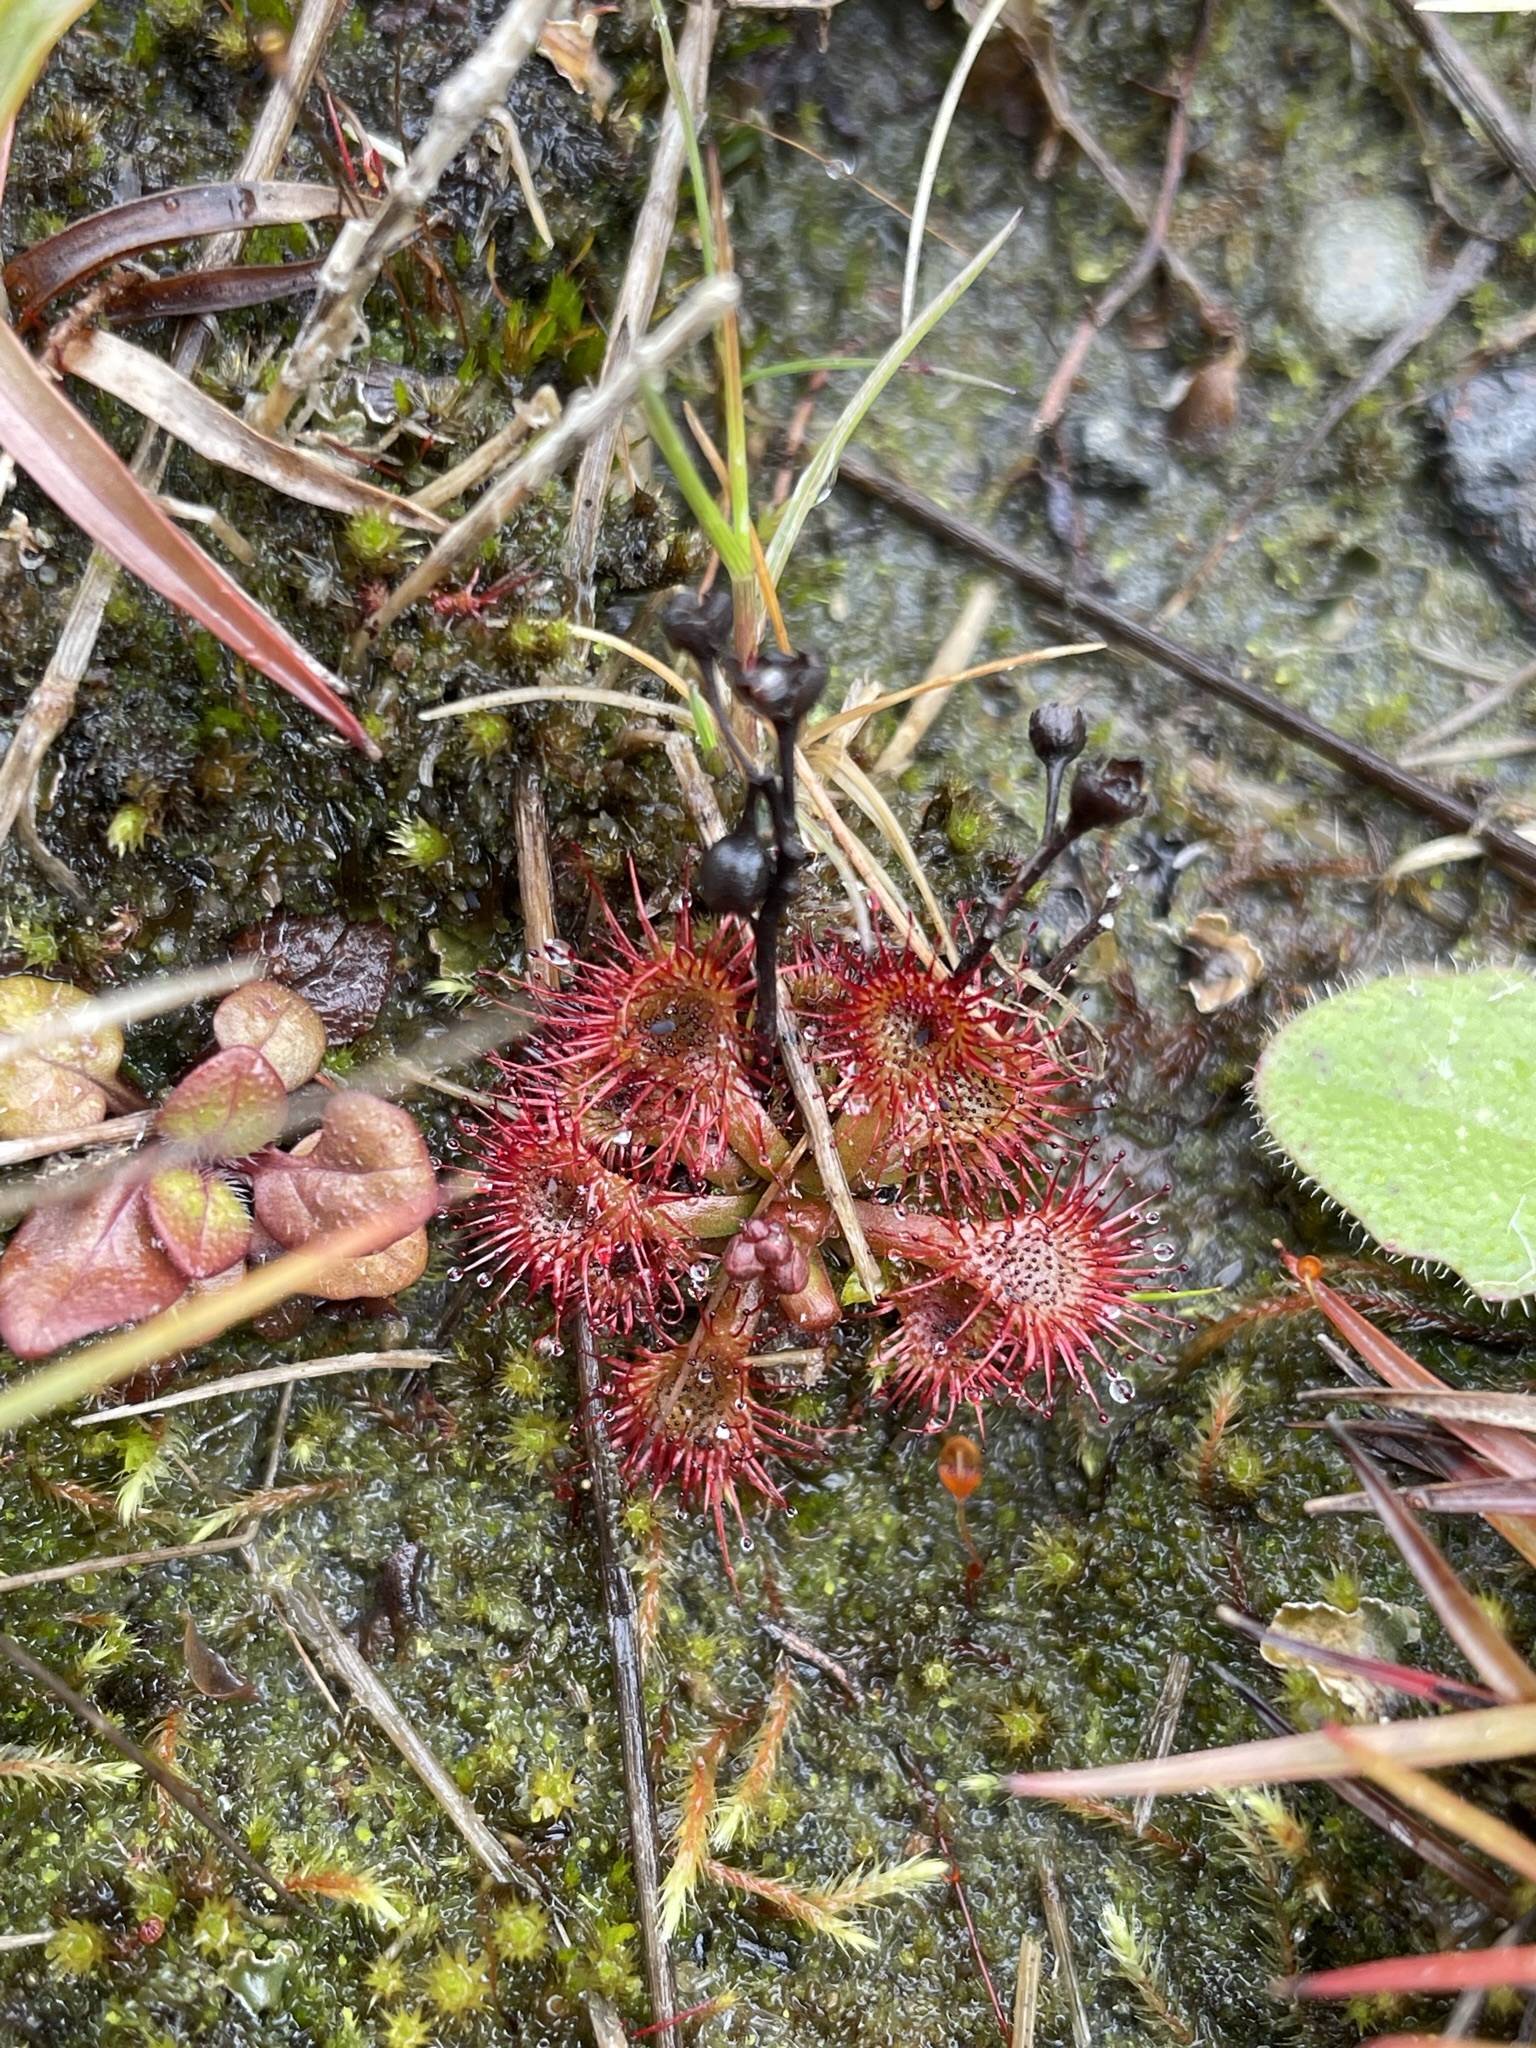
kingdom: Plantae
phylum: Tracheophyta
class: Magnoliopsida
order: Caryophyllales
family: Droseraceae
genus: Drosera
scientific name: Drosera spatulata
